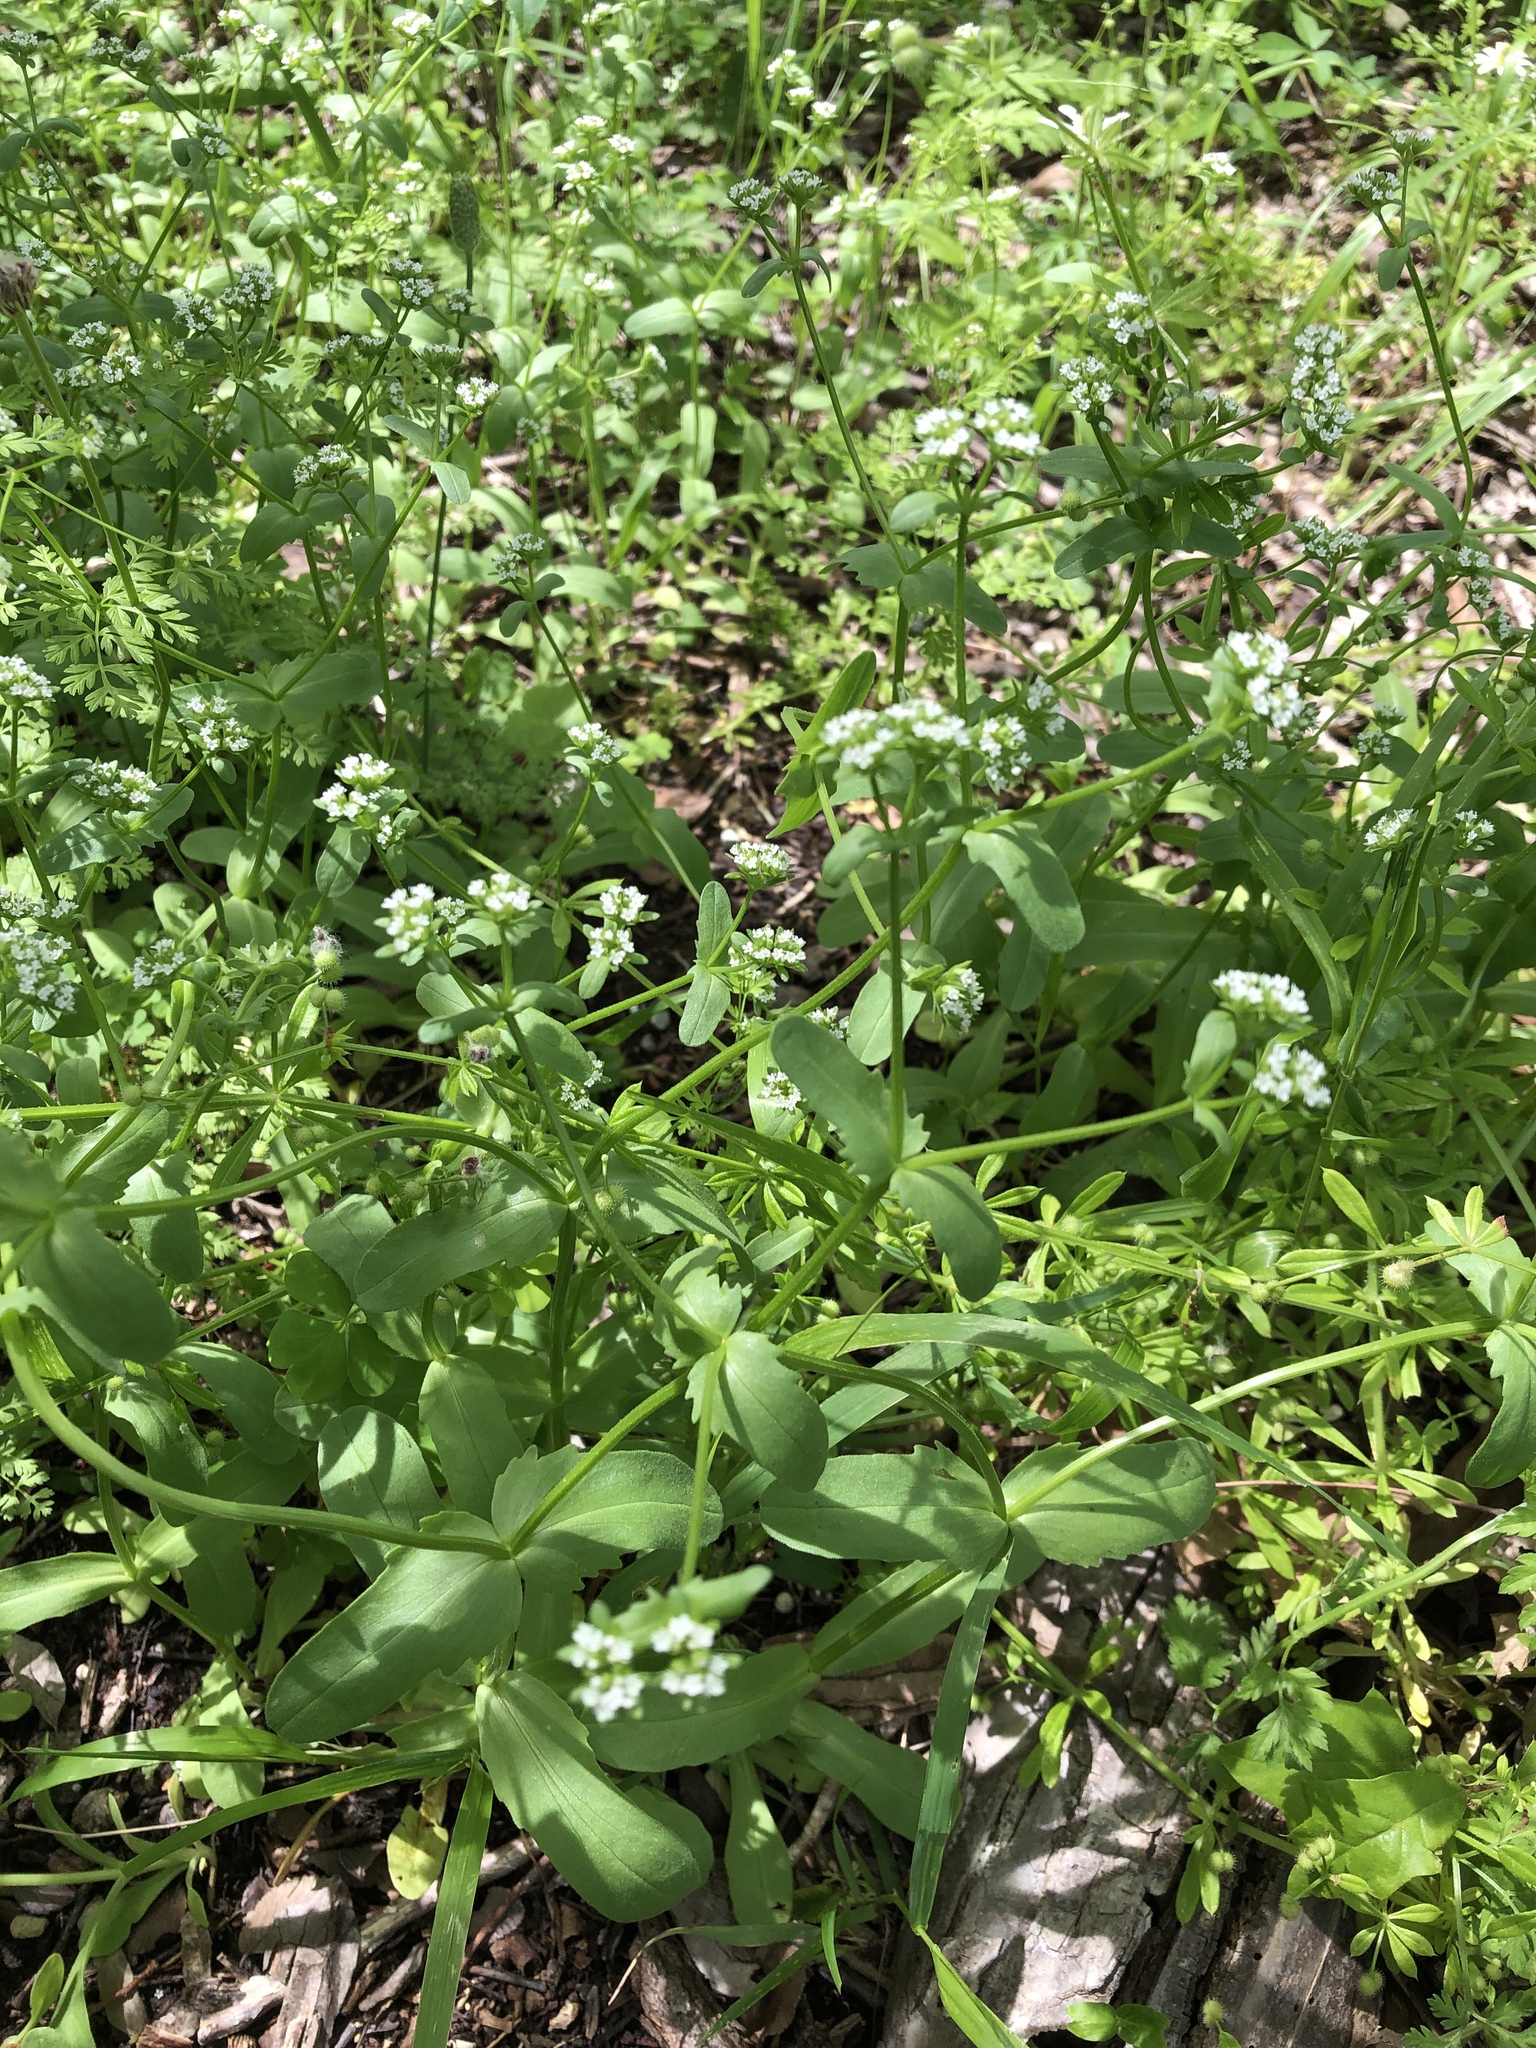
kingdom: Plantae
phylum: Tracheophyta
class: Magnoliopsida
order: Dipsacales
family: Caprifoliaceae
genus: Valerianella
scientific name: Valerianella radiata
